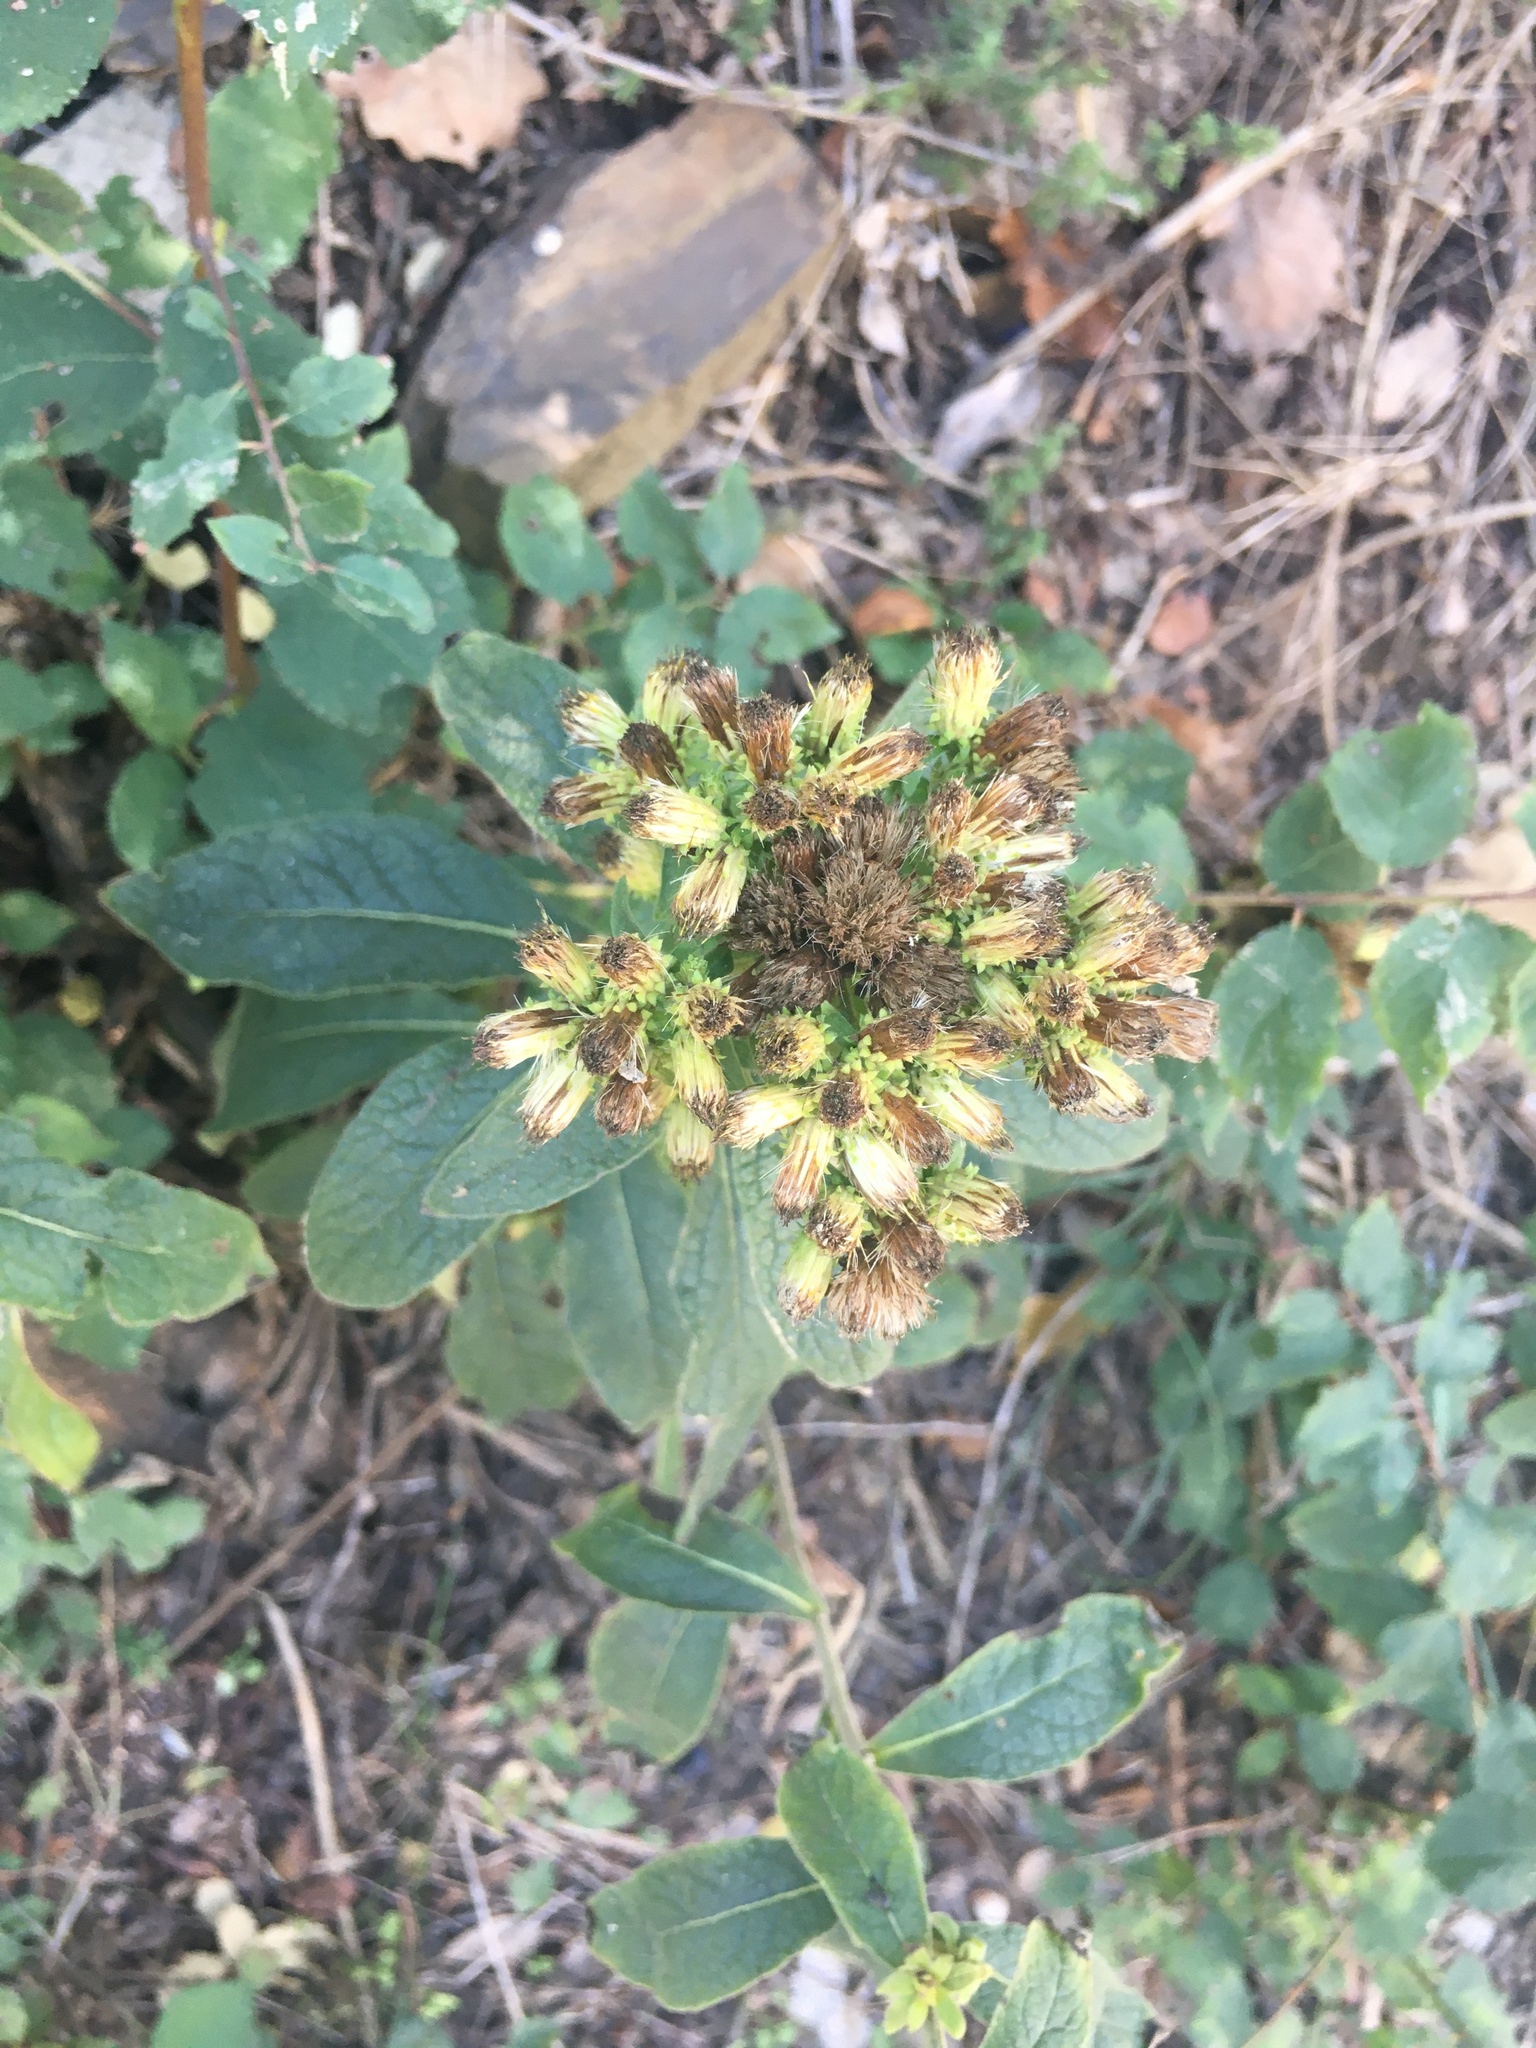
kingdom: Plantae
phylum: Tracheophyta
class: Magnoliopsida
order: Asterales
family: Asteraceae
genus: Pentanema
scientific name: Pentanema squarrosum
